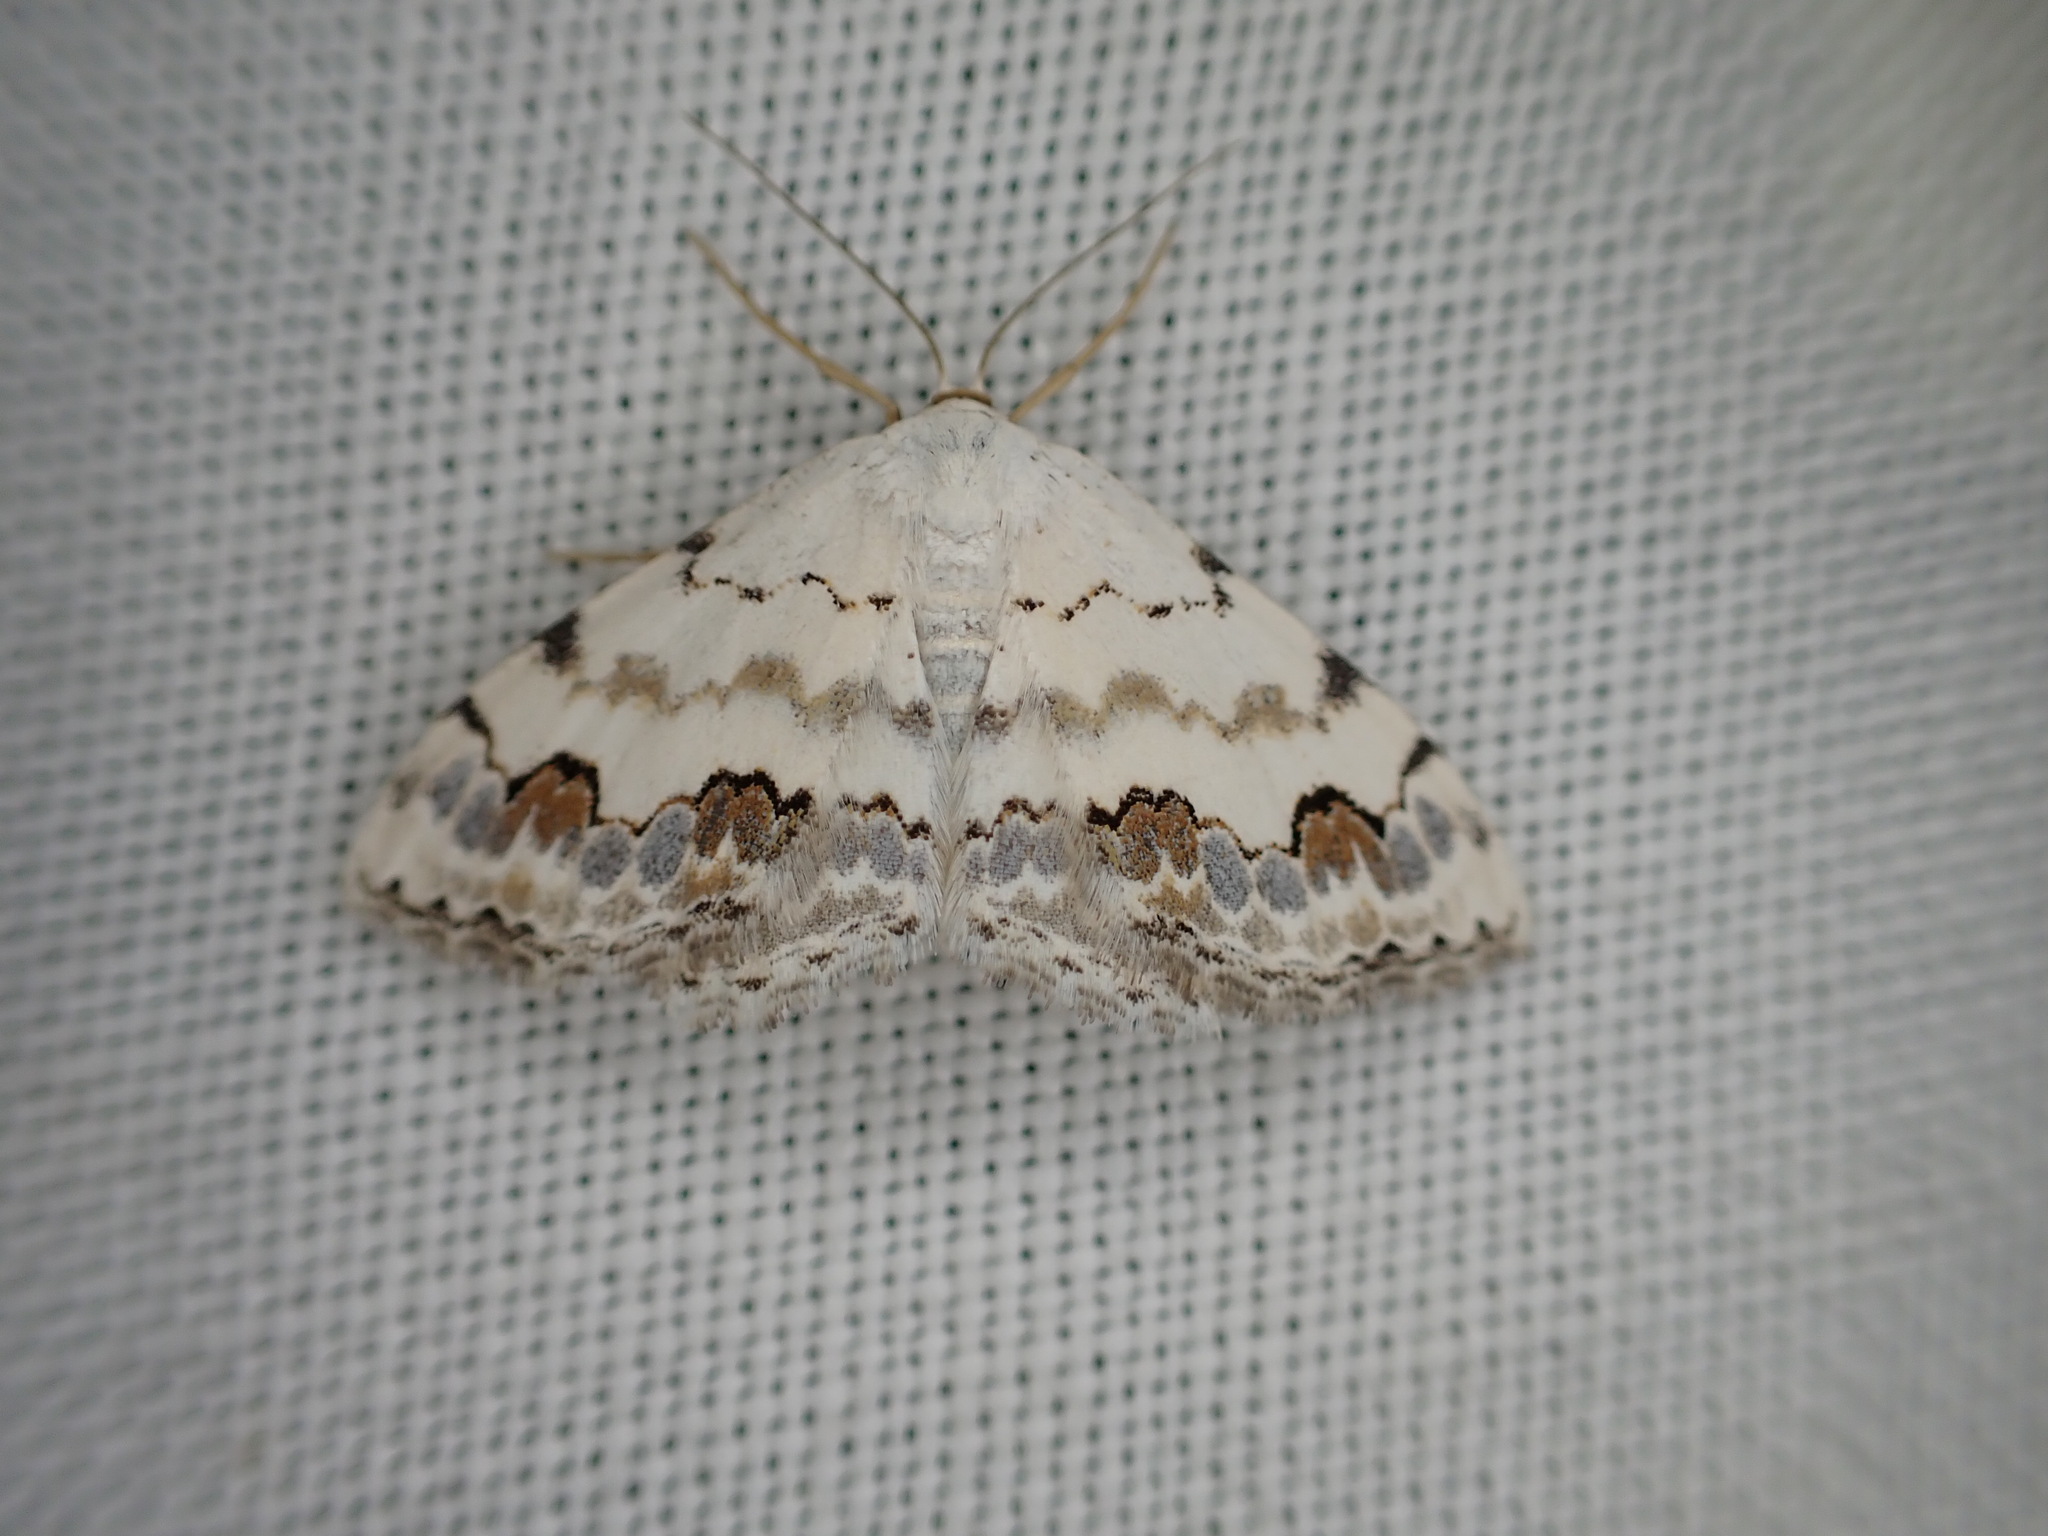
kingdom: Animalia
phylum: Arthropoda
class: Insecta
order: Lepidoptera
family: Geometridae
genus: Scopula
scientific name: Scopula decorata
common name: Middle lace border
